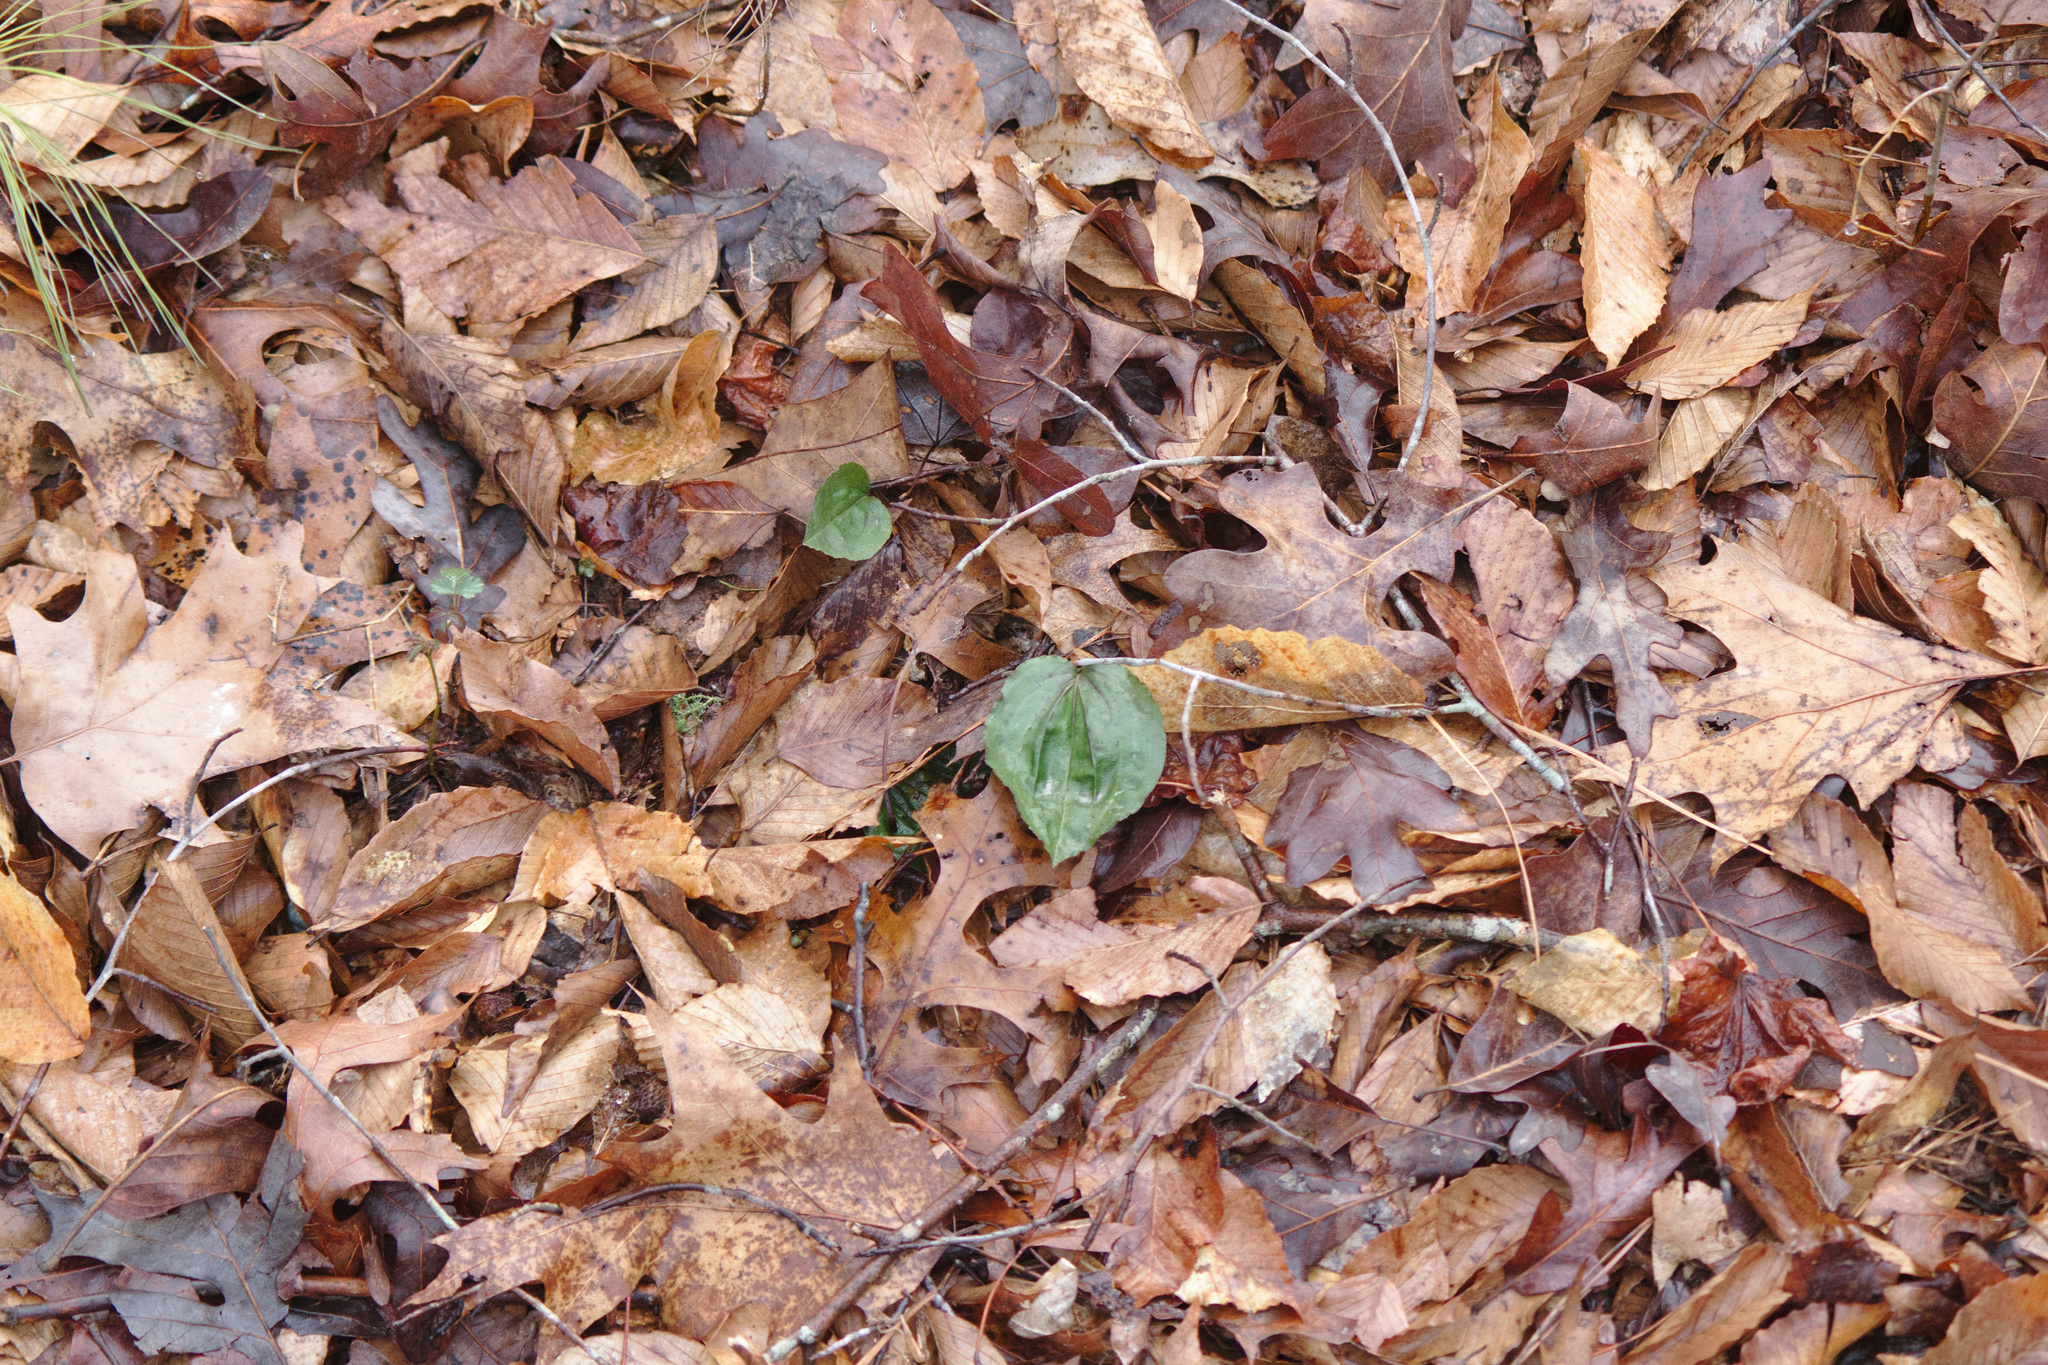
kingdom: Plantae
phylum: Tracheophyta
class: Liliopsida
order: Asparagales
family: Orchidaceae
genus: Tipularia
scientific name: Tipularia discolor
